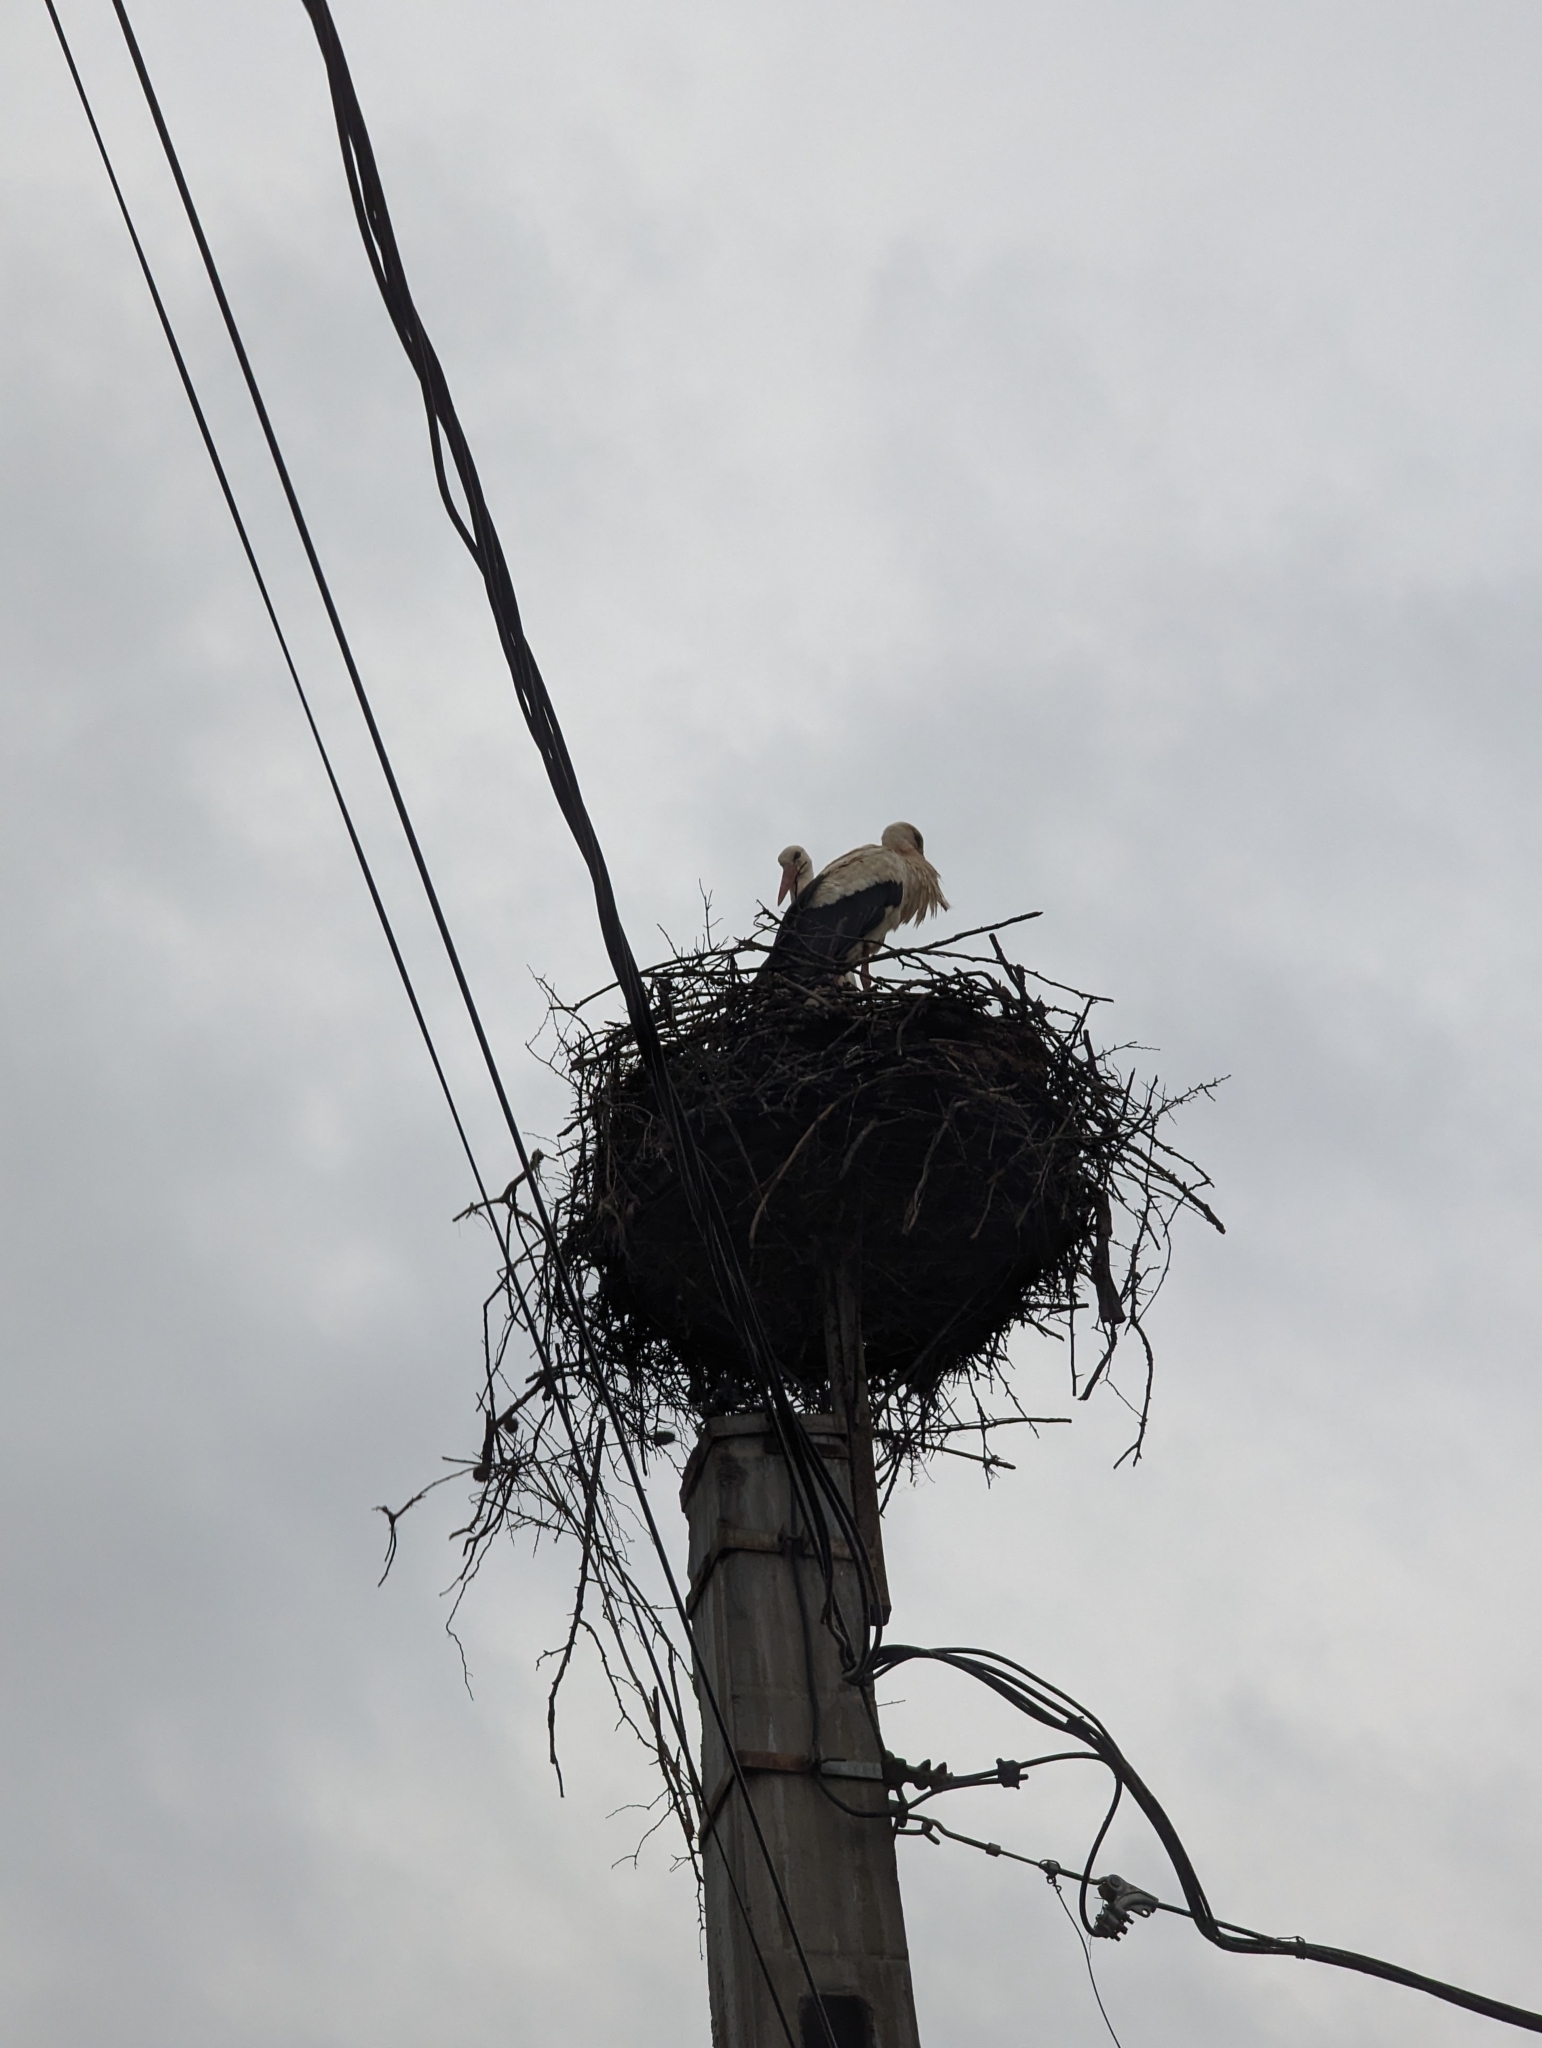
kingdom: Animalia
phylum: Chordata
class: Aves
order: Ciconiiformes
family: Ciconiidae
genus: Ciconia
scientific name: Ciconia ciconia
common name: White stork
